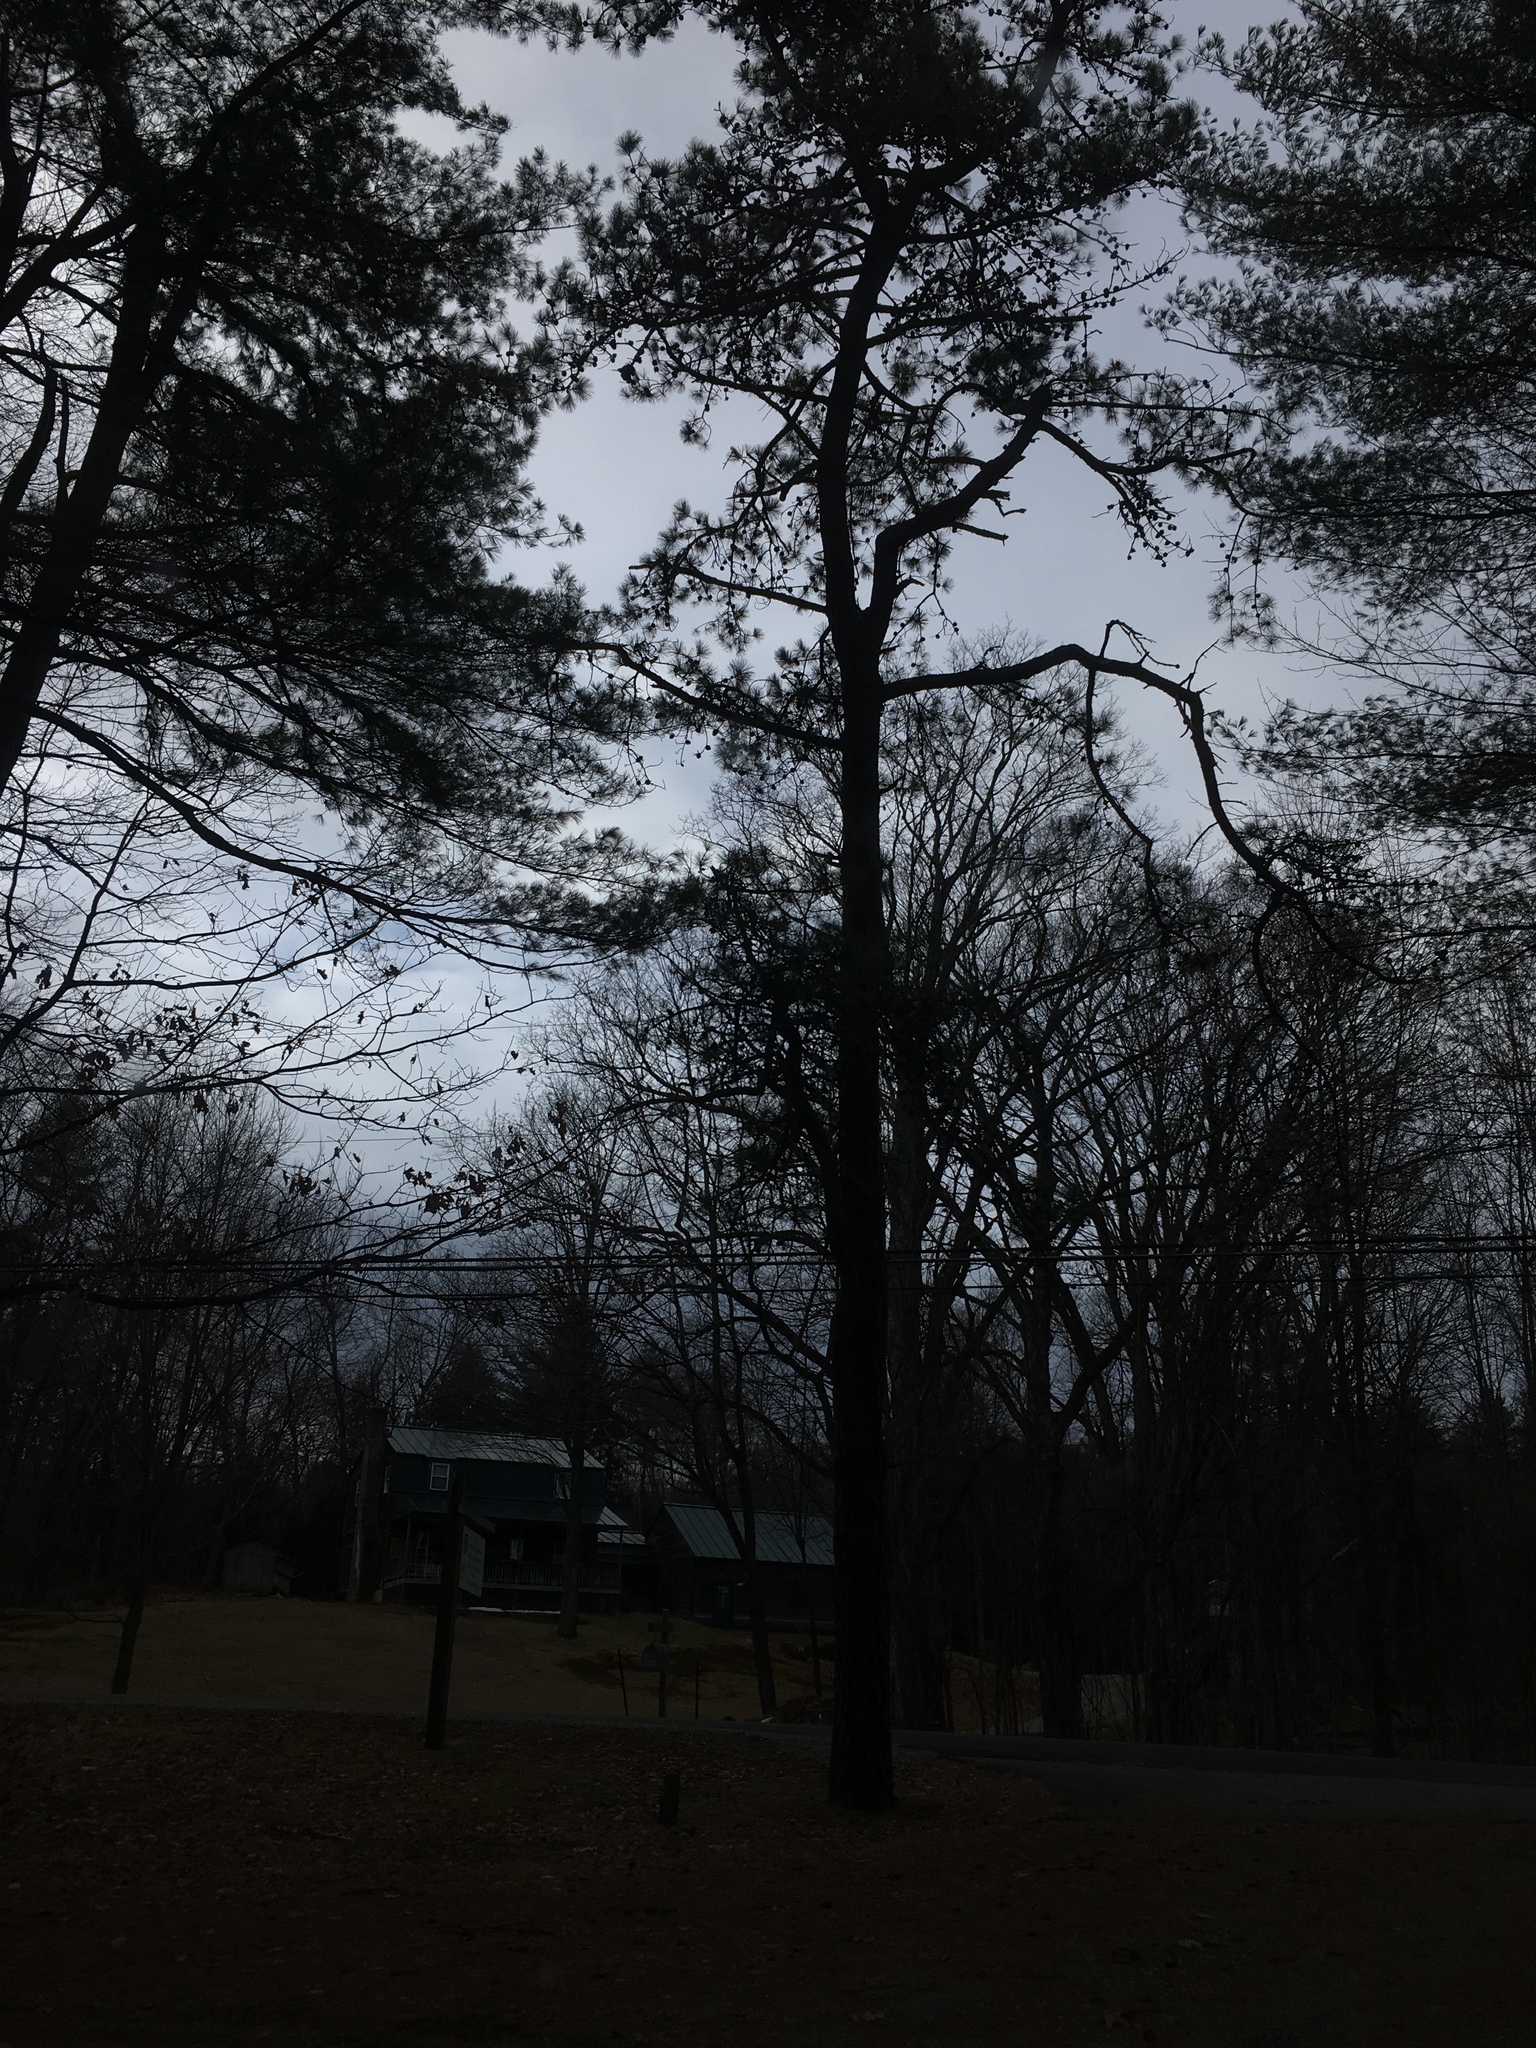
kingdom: Plantae
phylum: Tracheophyta
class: Pinopsida
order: Pinales
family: Pinaceae
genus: Pinus
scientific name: Pinus rigida
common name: Pitch pine
